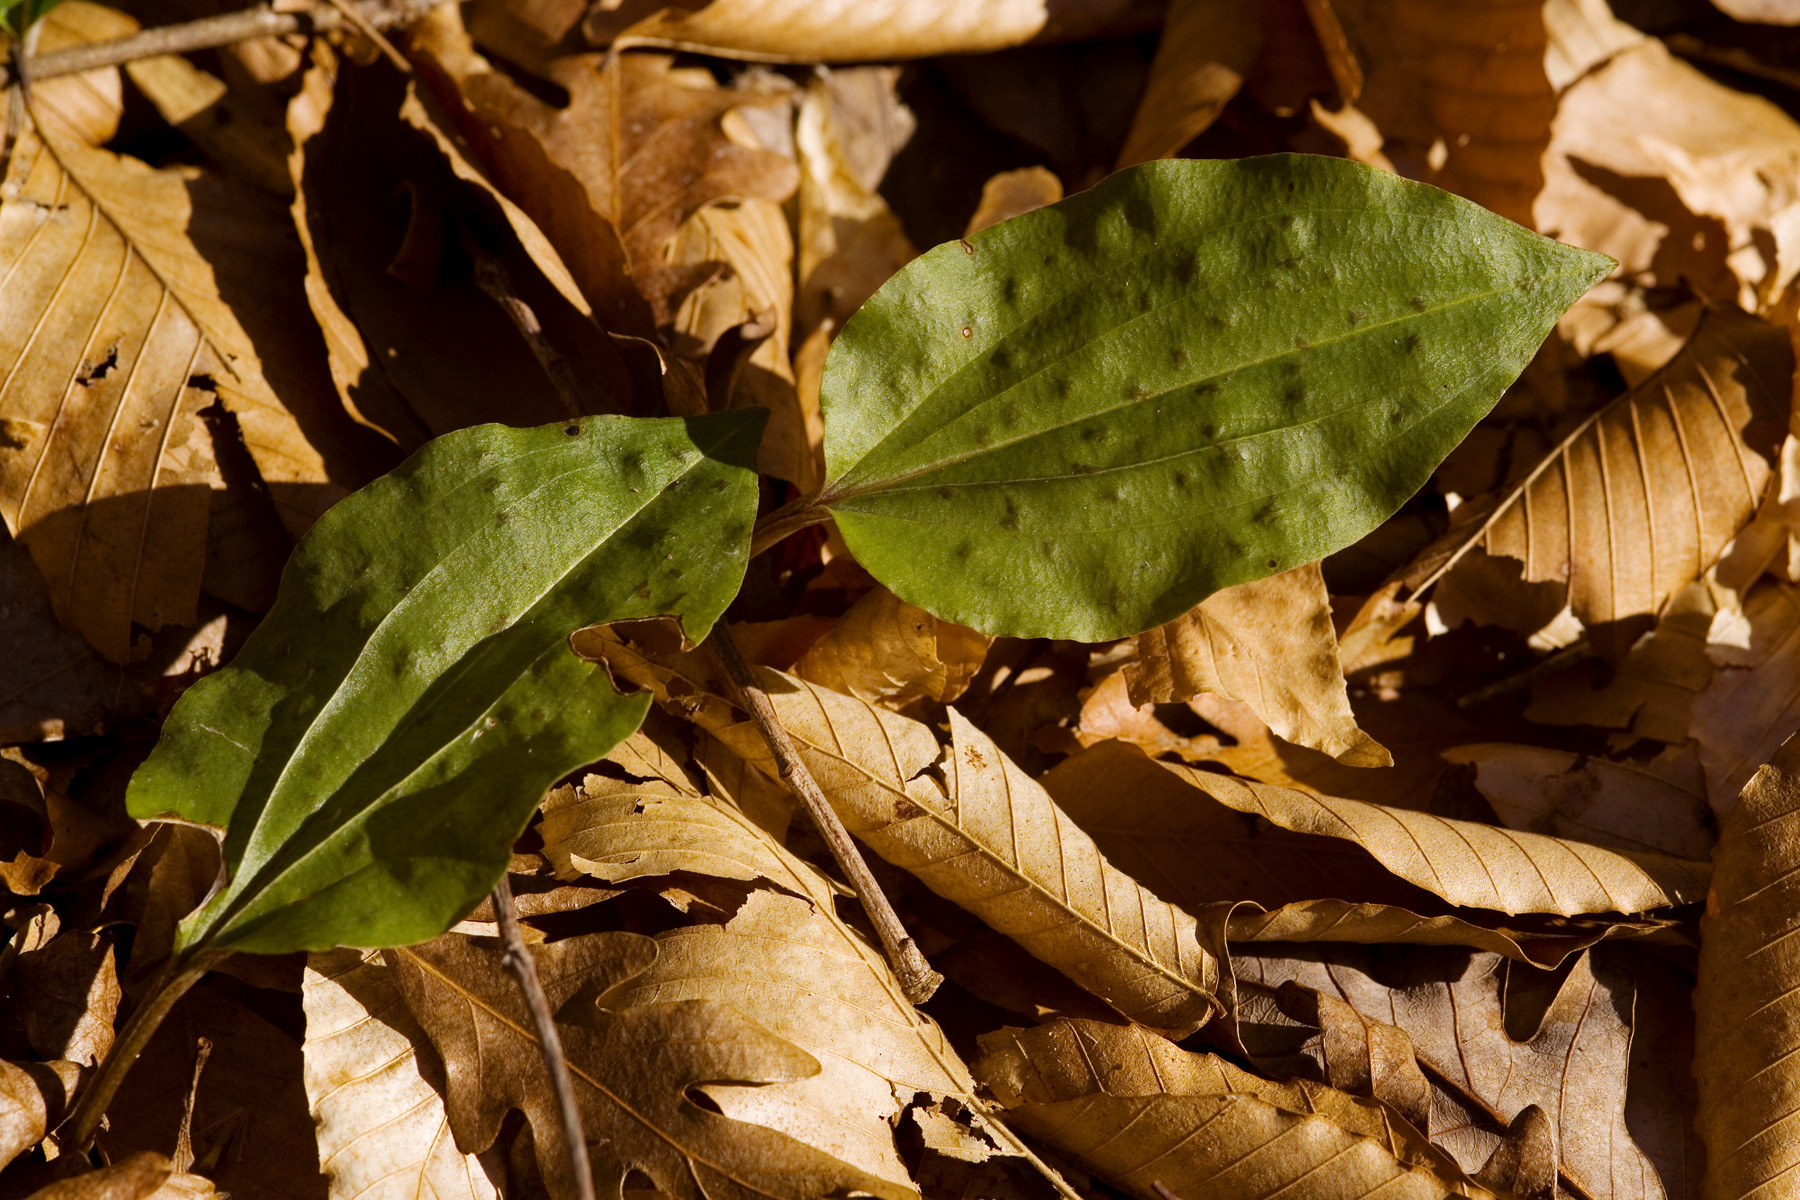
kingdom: Plantae
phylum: Tracheophyta
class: Liliopsida
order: Asparagales
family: Orchidaceae
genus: Tipularia
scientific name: Tipularia discolor
